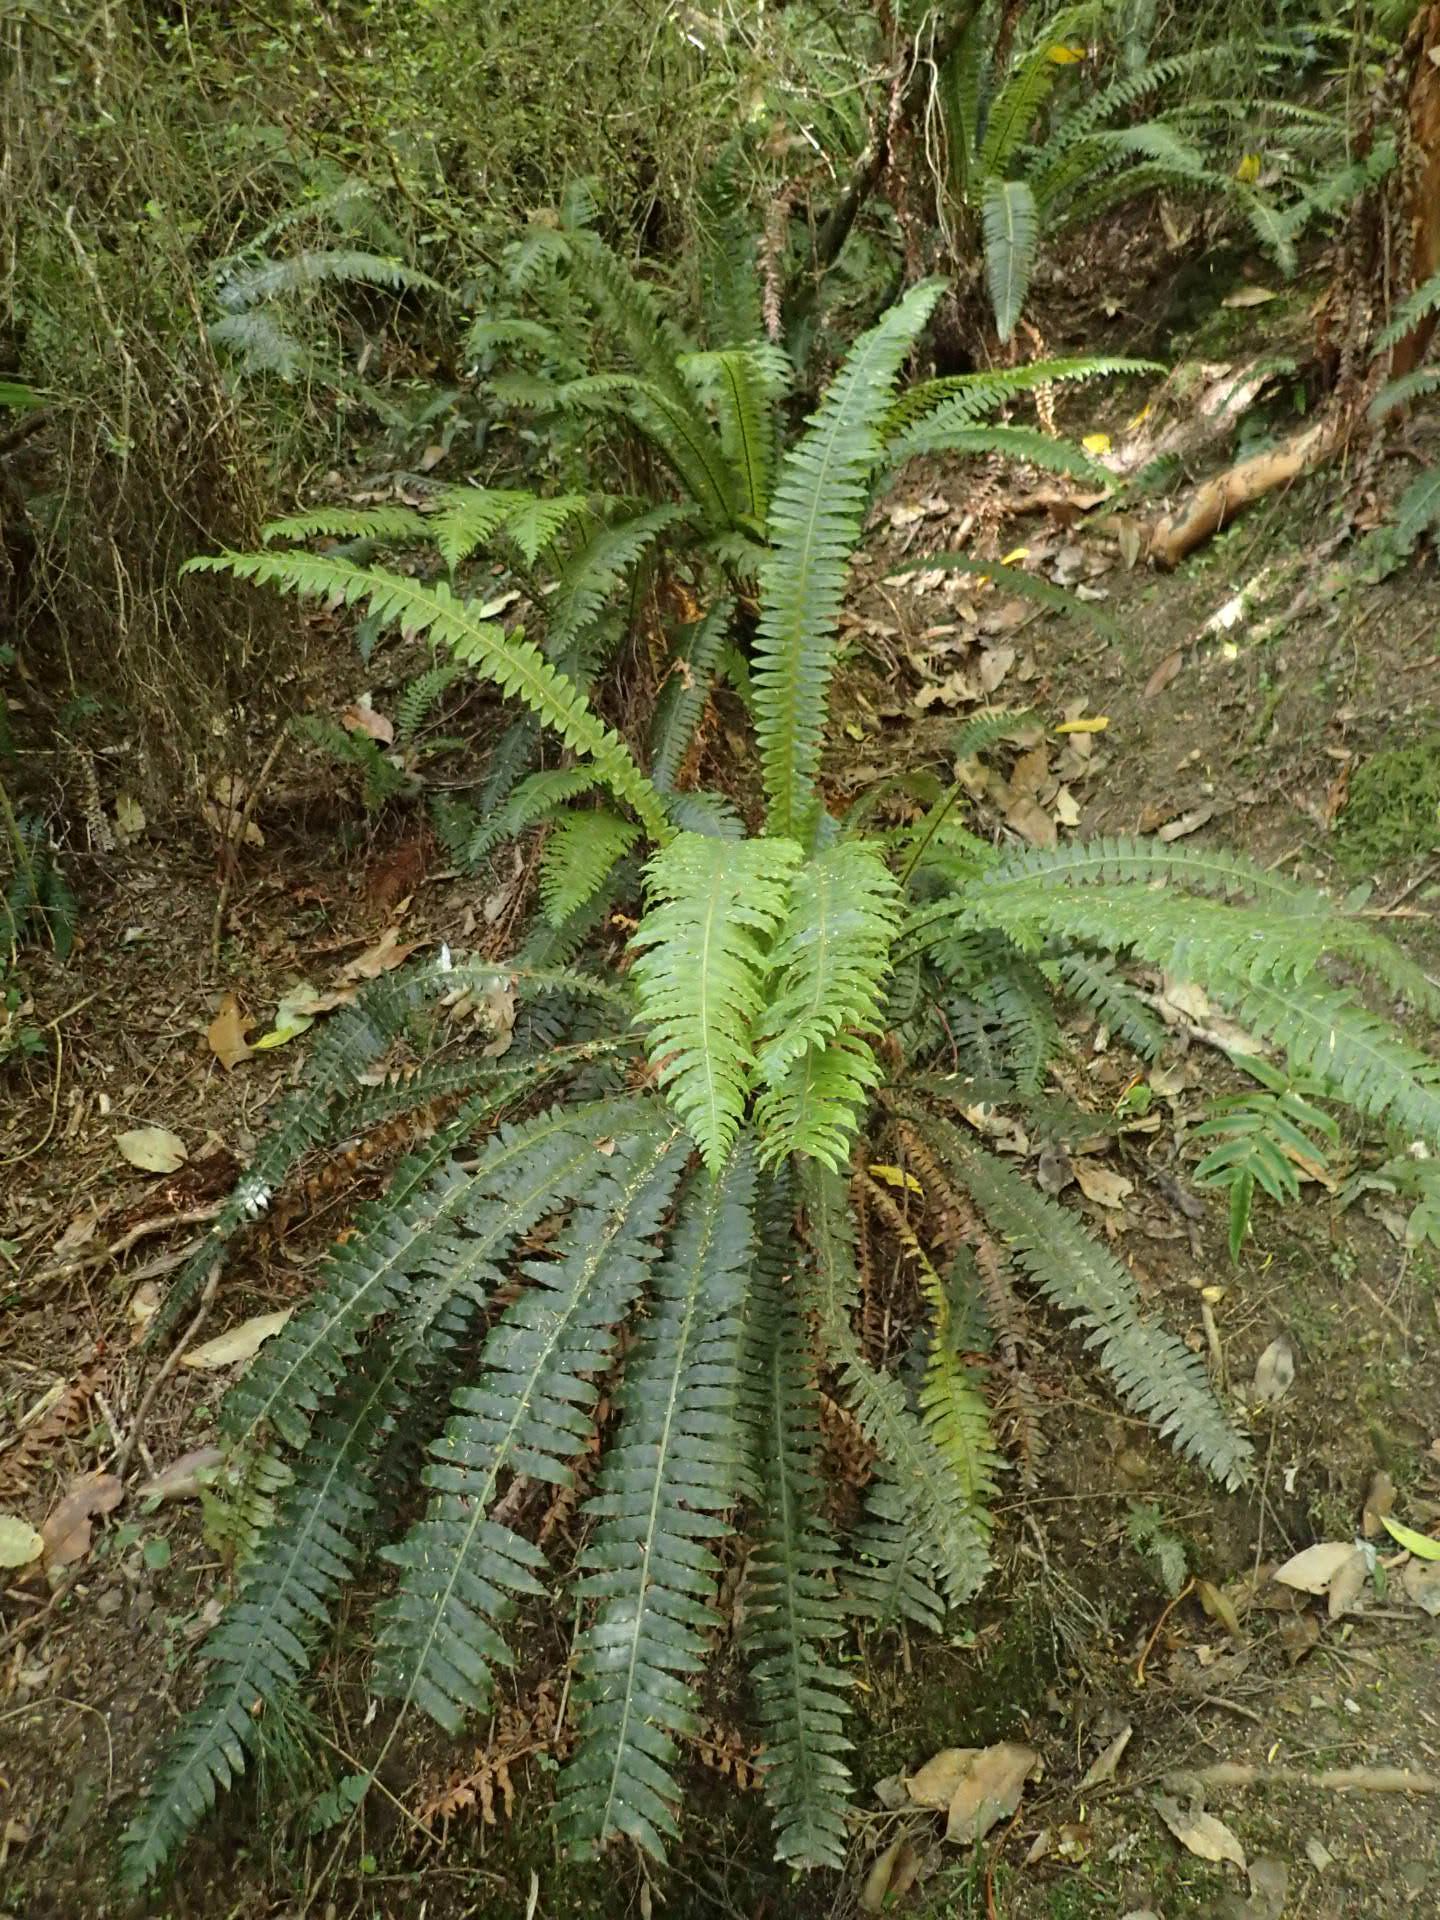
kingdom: Plantae
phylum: Tracheophyta
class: Polypodiopsida
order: Polypodiales
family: Blechnaceae
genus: Lomaria
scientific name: Lomaria discolor
